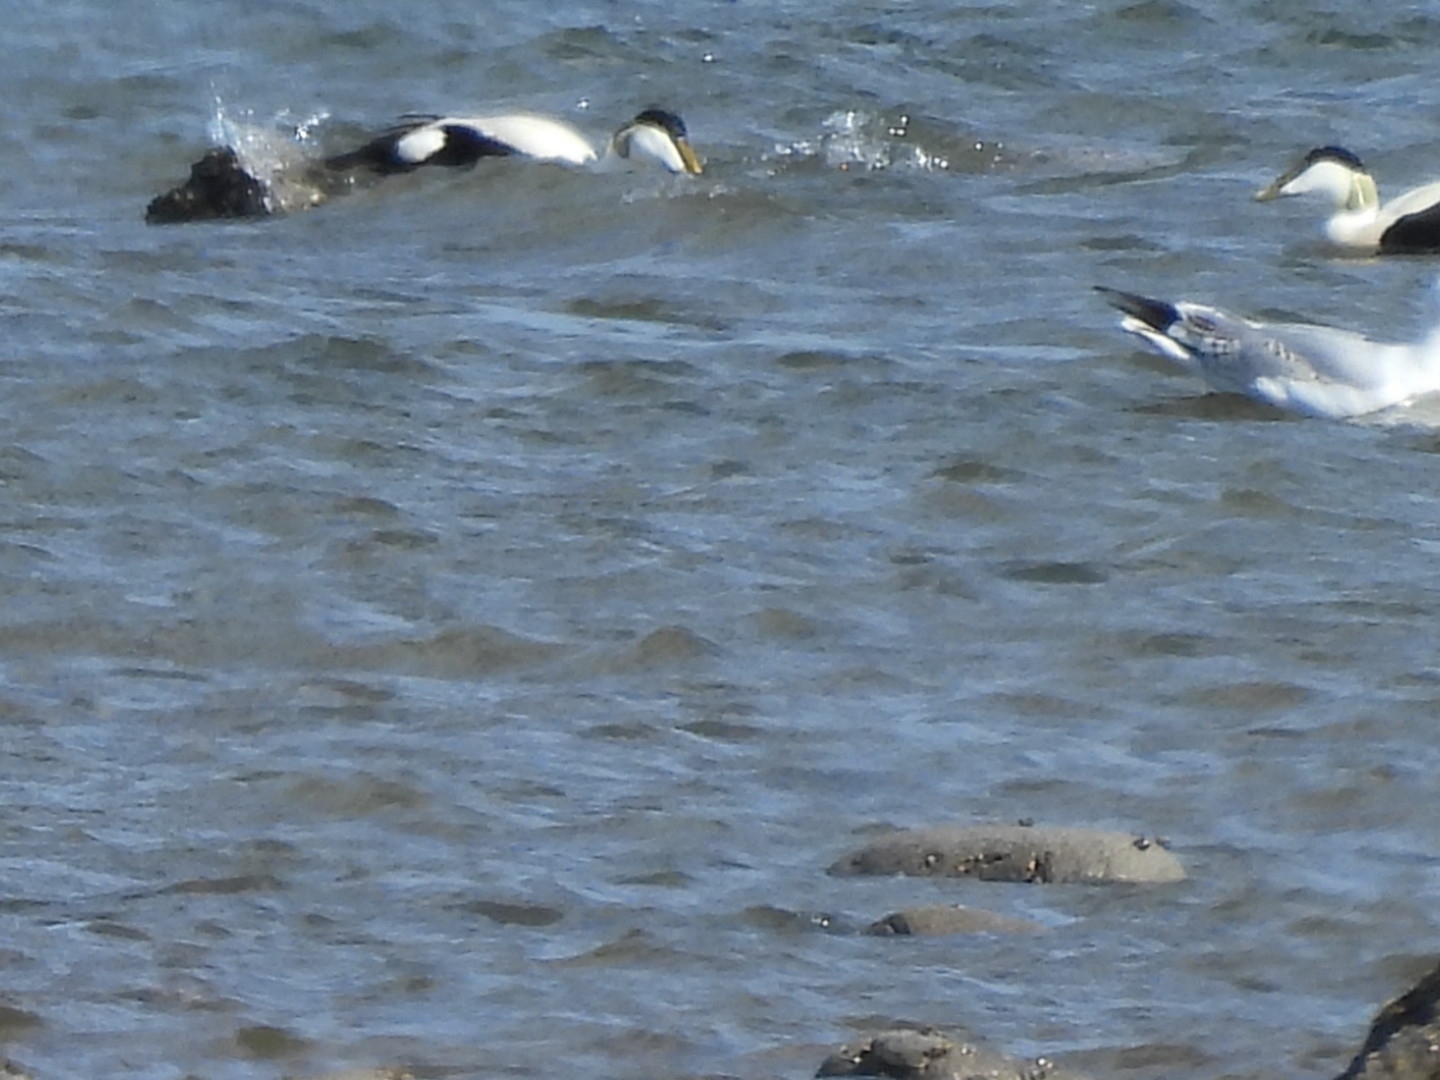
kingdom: Animalia
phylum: Chordata
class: Aves
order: Anseriformes
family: Anatidae
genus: Somateria
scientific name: Somateria mollissima
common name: Common eider
